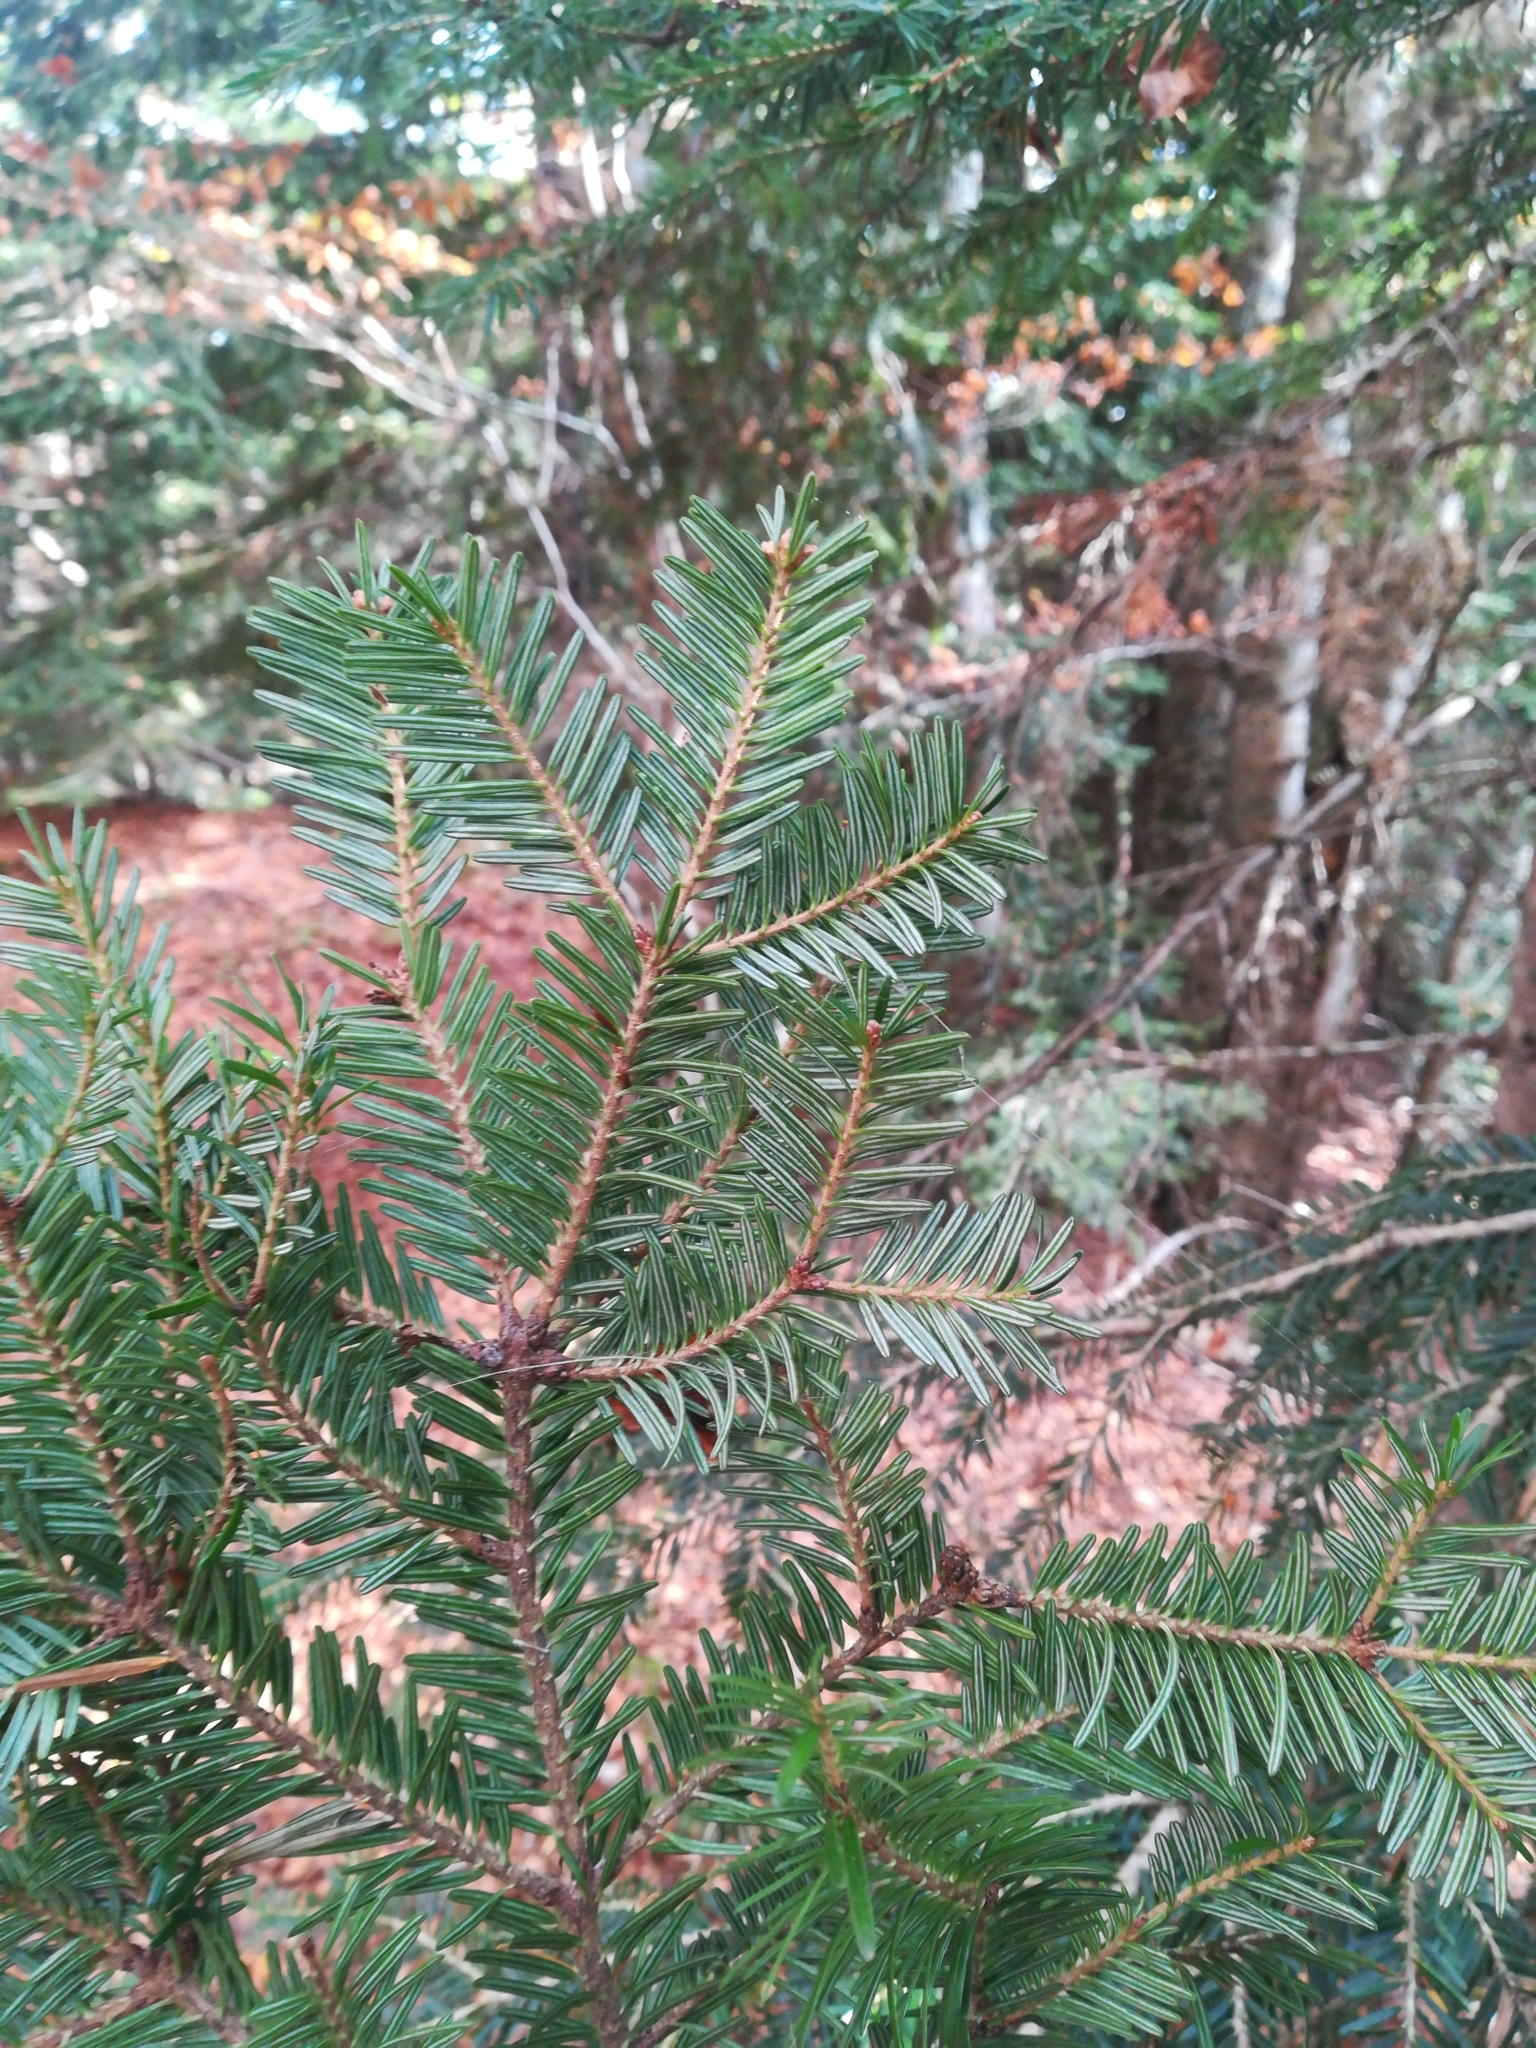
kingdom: Plantae
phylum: Tracheophyta
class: Pinopsida
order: Pinales
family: Pinaceae
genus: Abies
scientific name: Abies alba
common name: Silver fir
